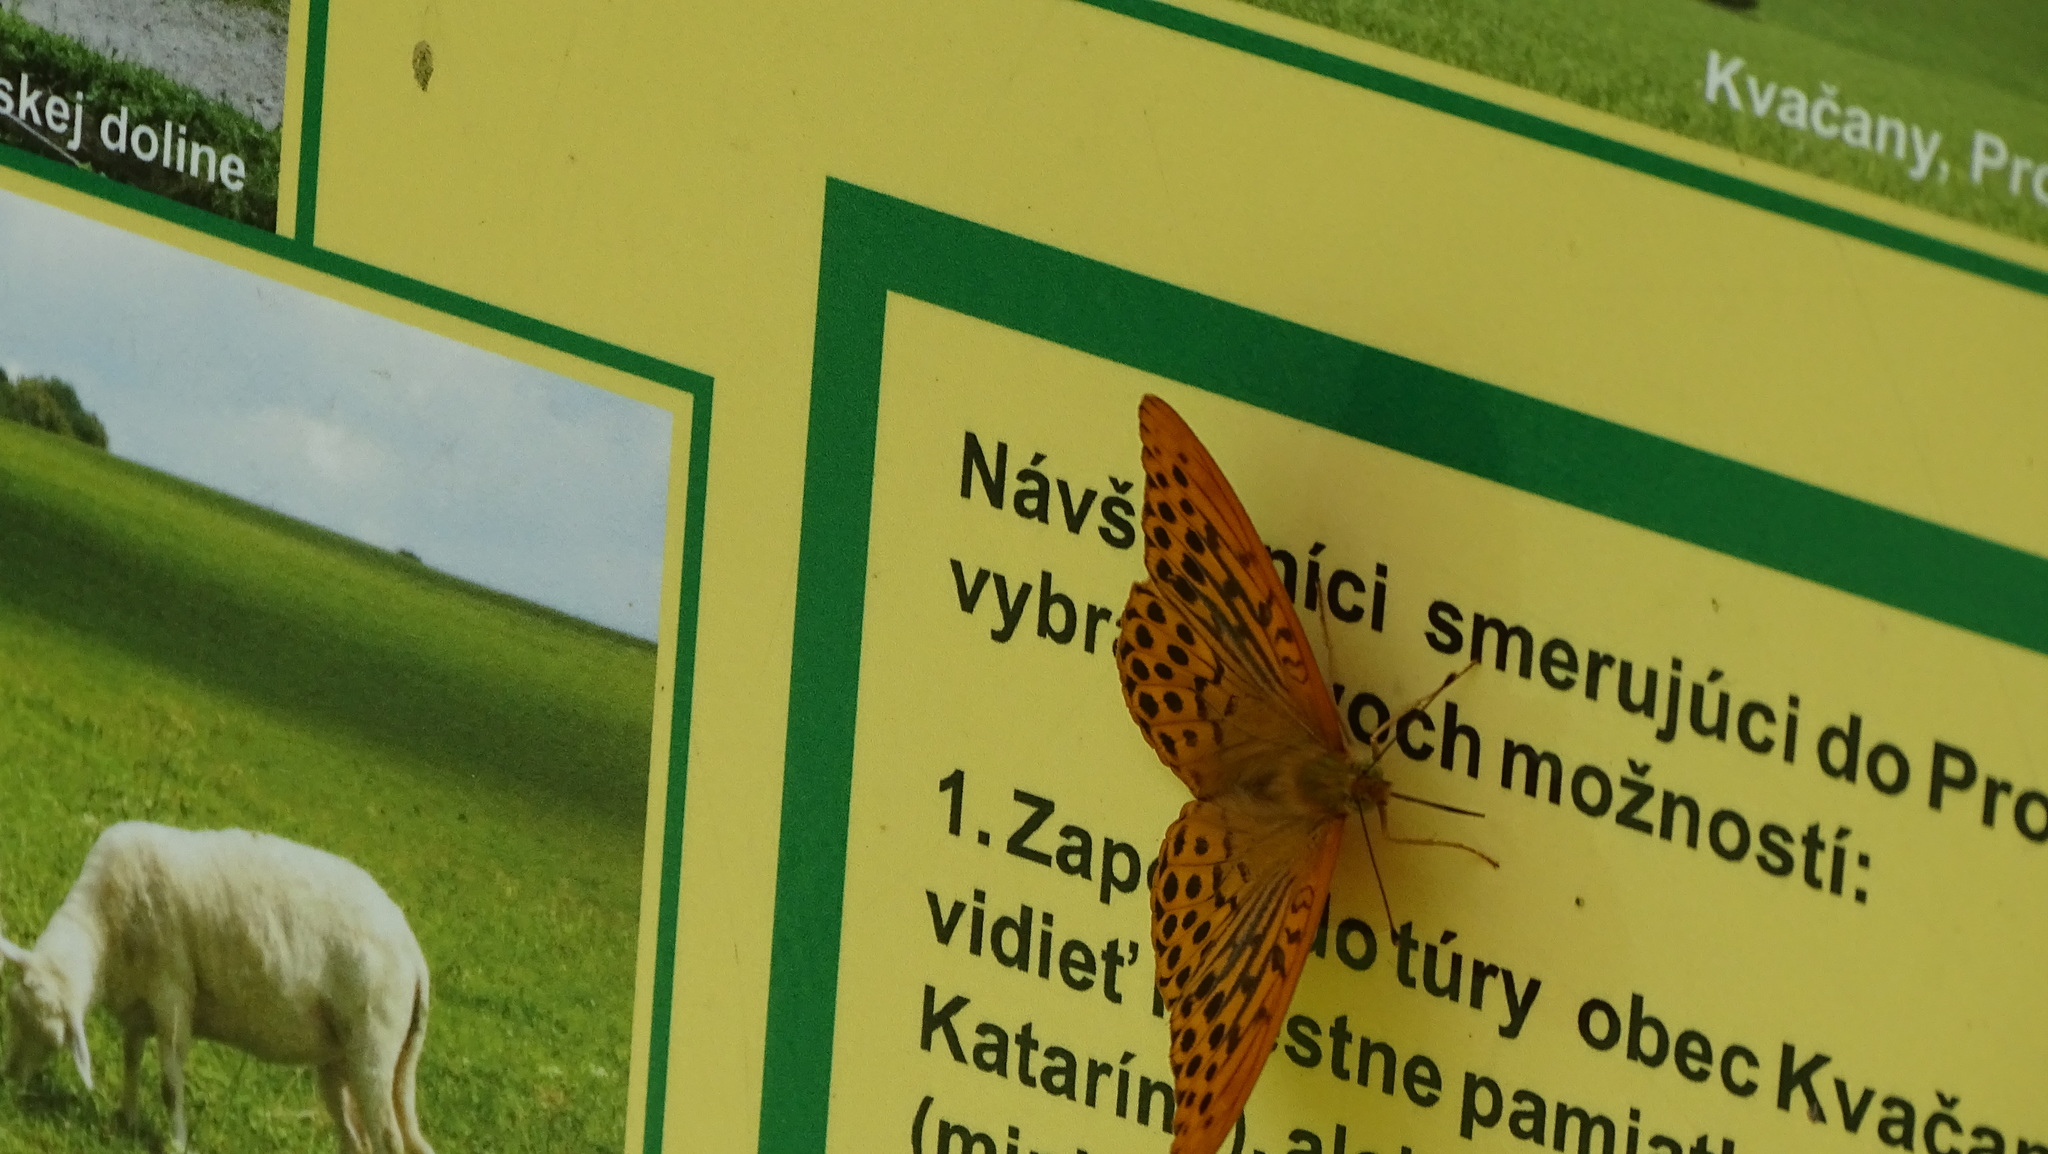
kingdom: Animalia
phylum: Arthropoda
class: Insecta
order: Lepidoptera
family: Nymphalidae
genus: Argynnis
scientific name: Argynnis paphia
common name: Silver-washed fritillary
